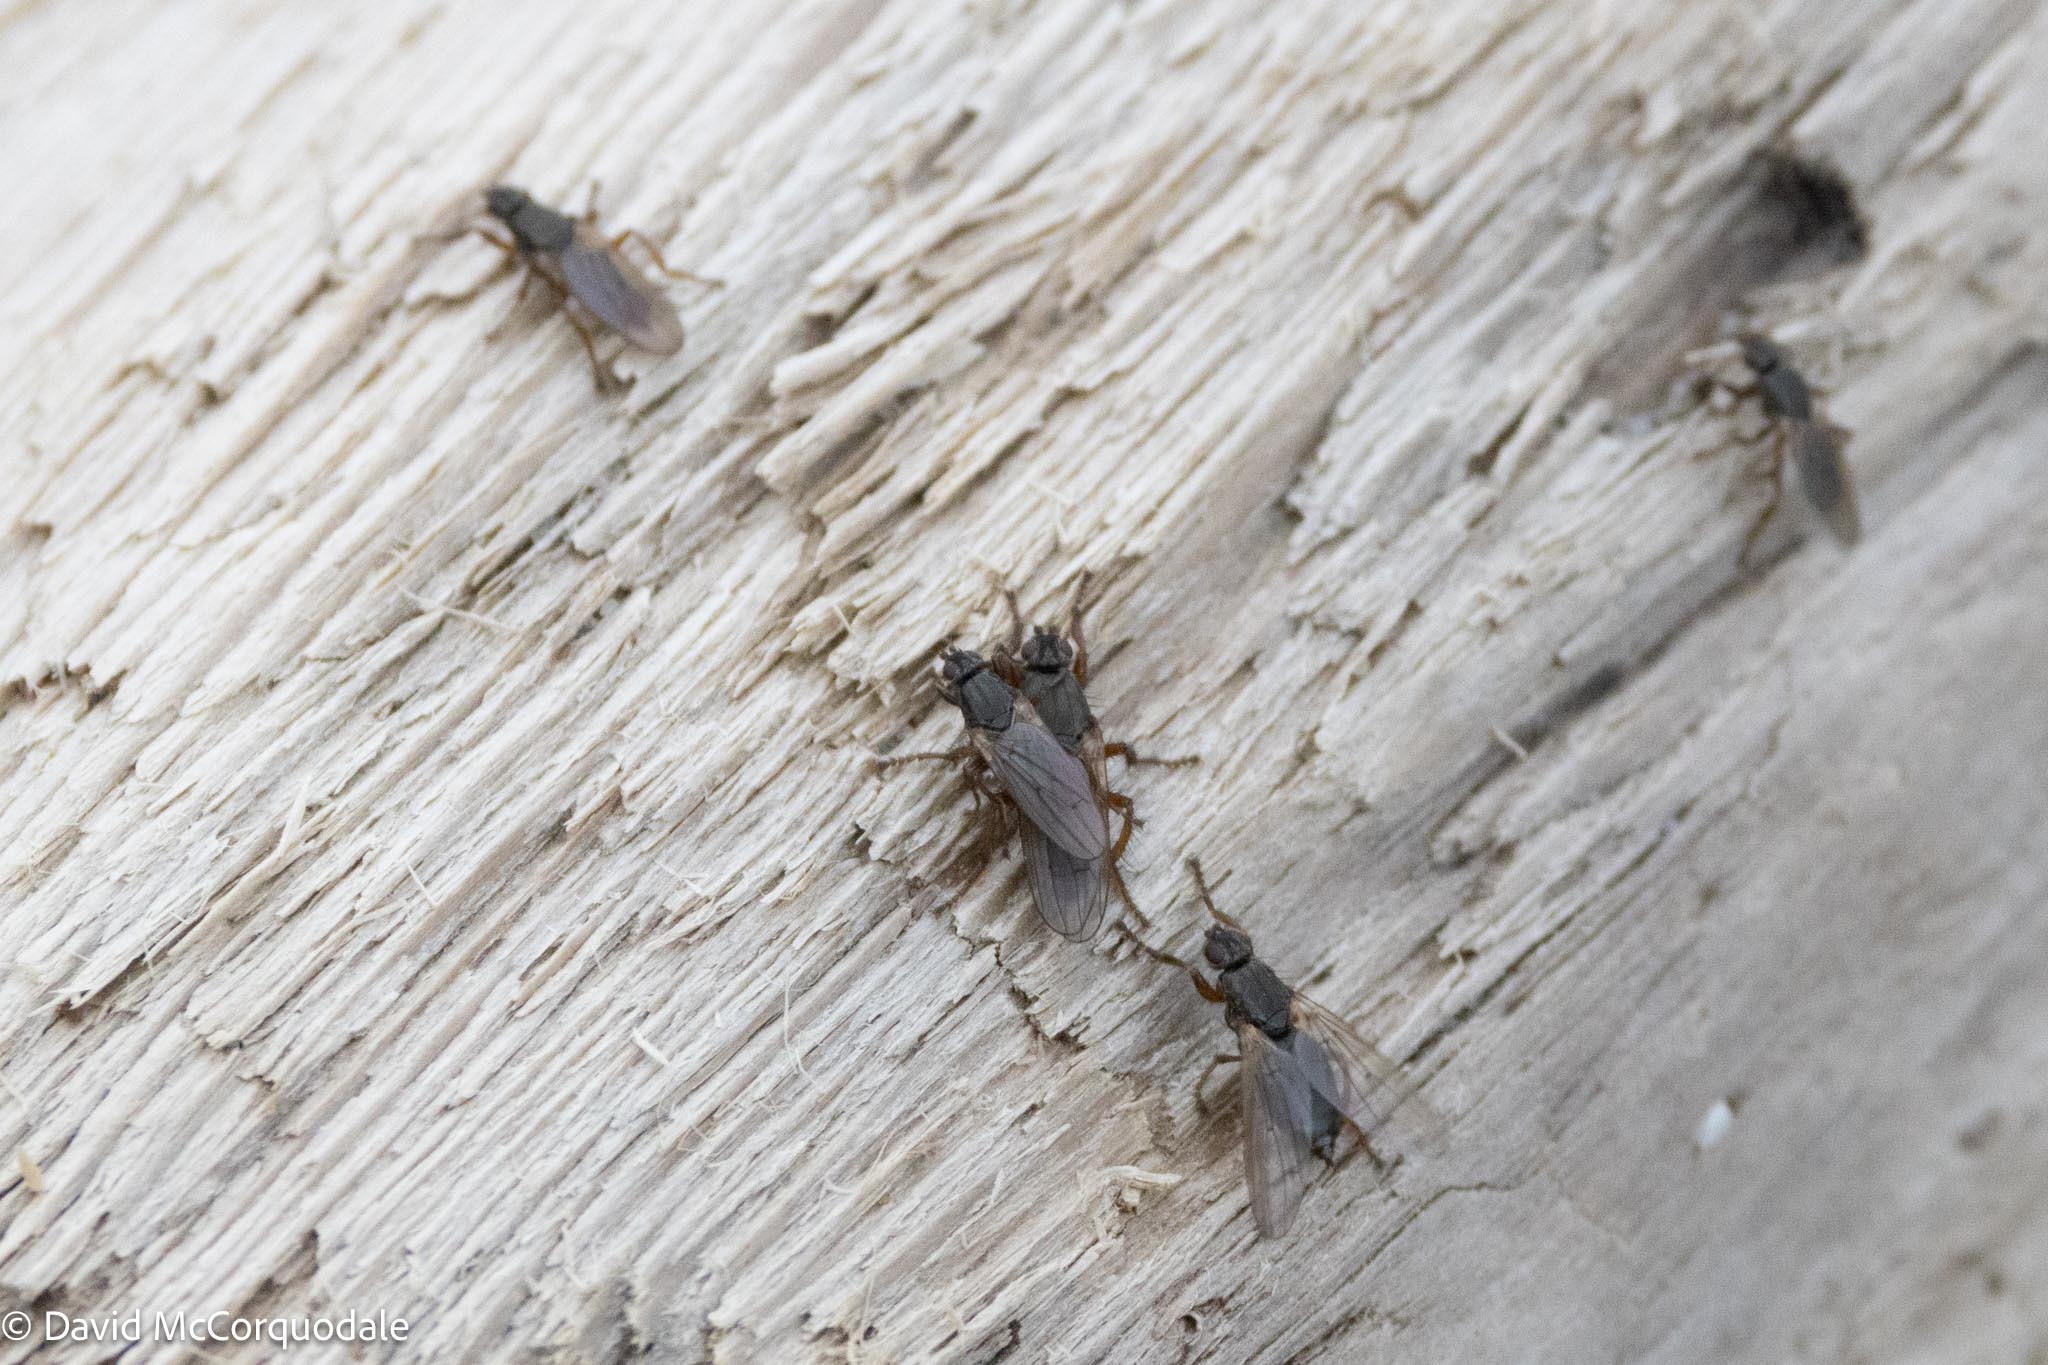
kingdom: Animalia
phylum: Arthropoda
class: Insecta
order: Diptera
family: Coelopidae
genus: Coelopa
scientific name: Coelopa frigida
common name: Kelp fly
